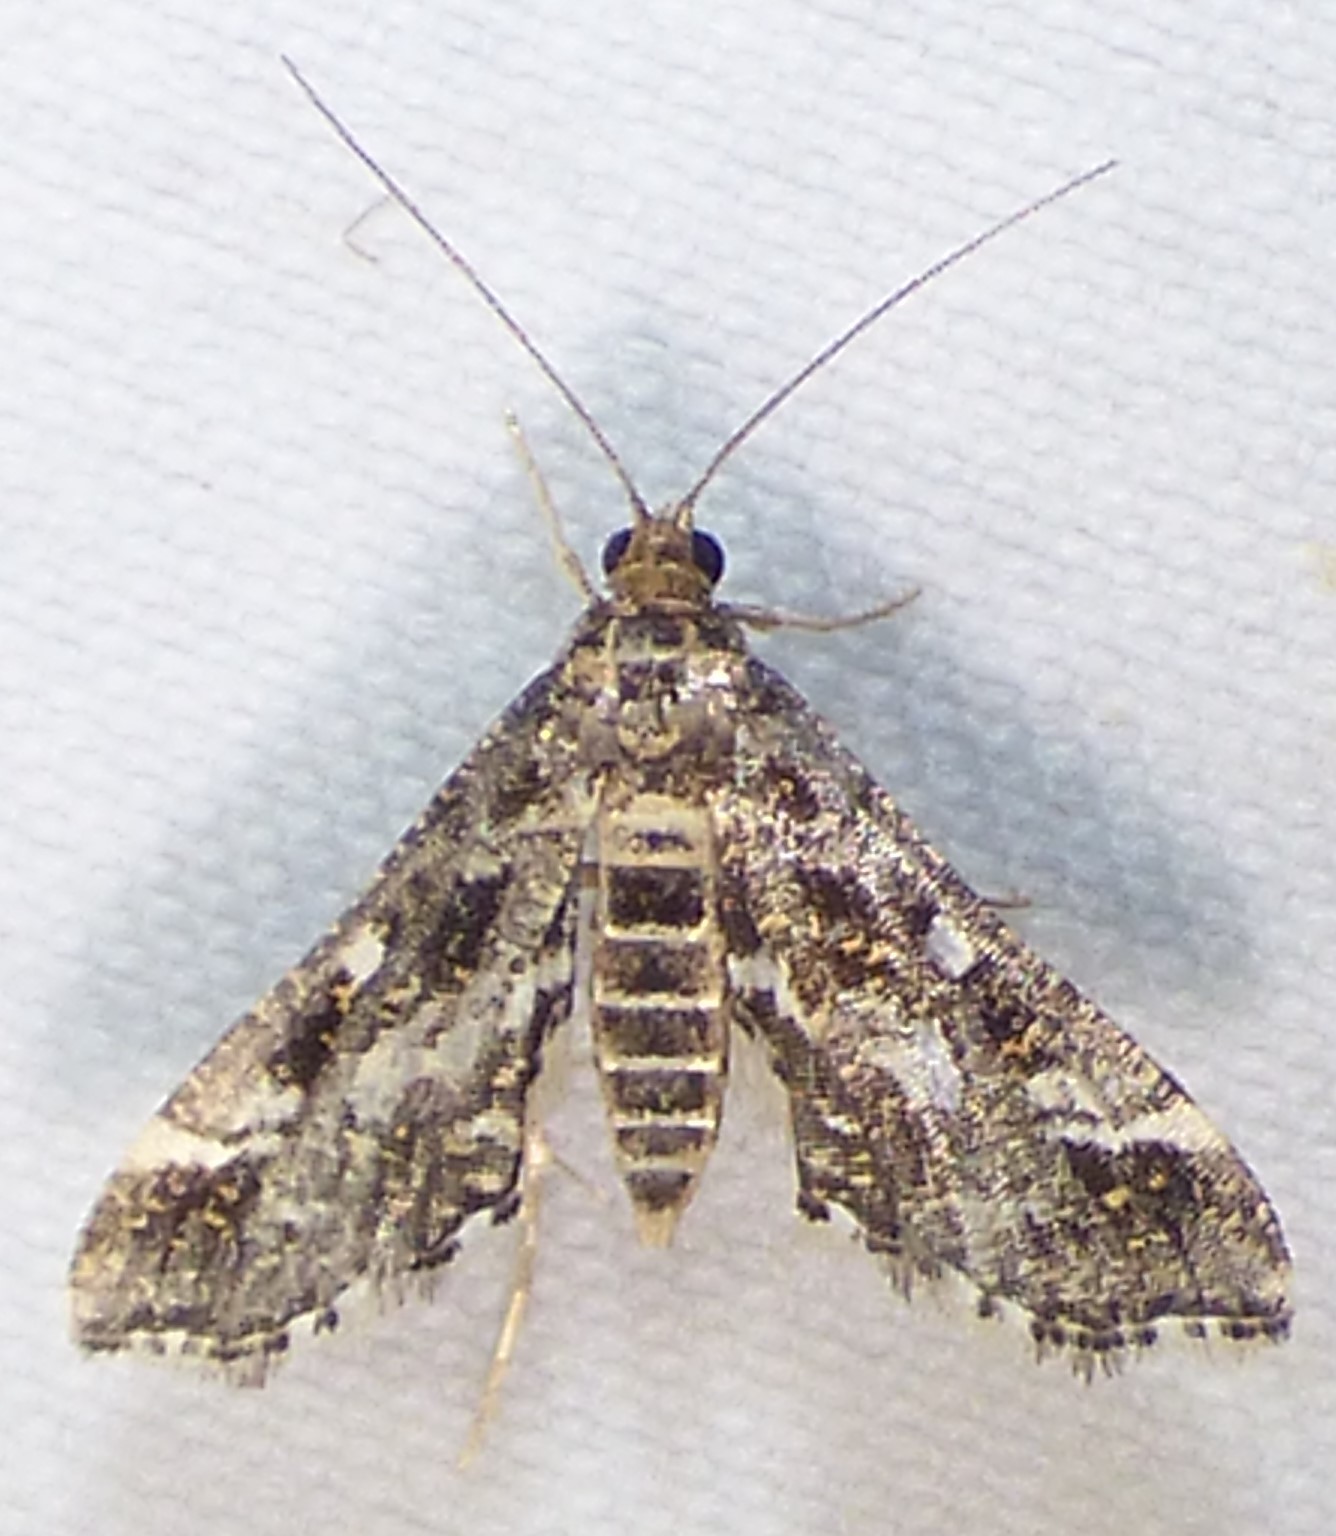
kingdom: Animalia
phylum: Arthropoda
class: Insecta
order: Lepidoptera
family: Crambidae
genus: Diasemiopsis
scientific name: Diasemiopsis ramburialis
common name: Vagrant china-mark
